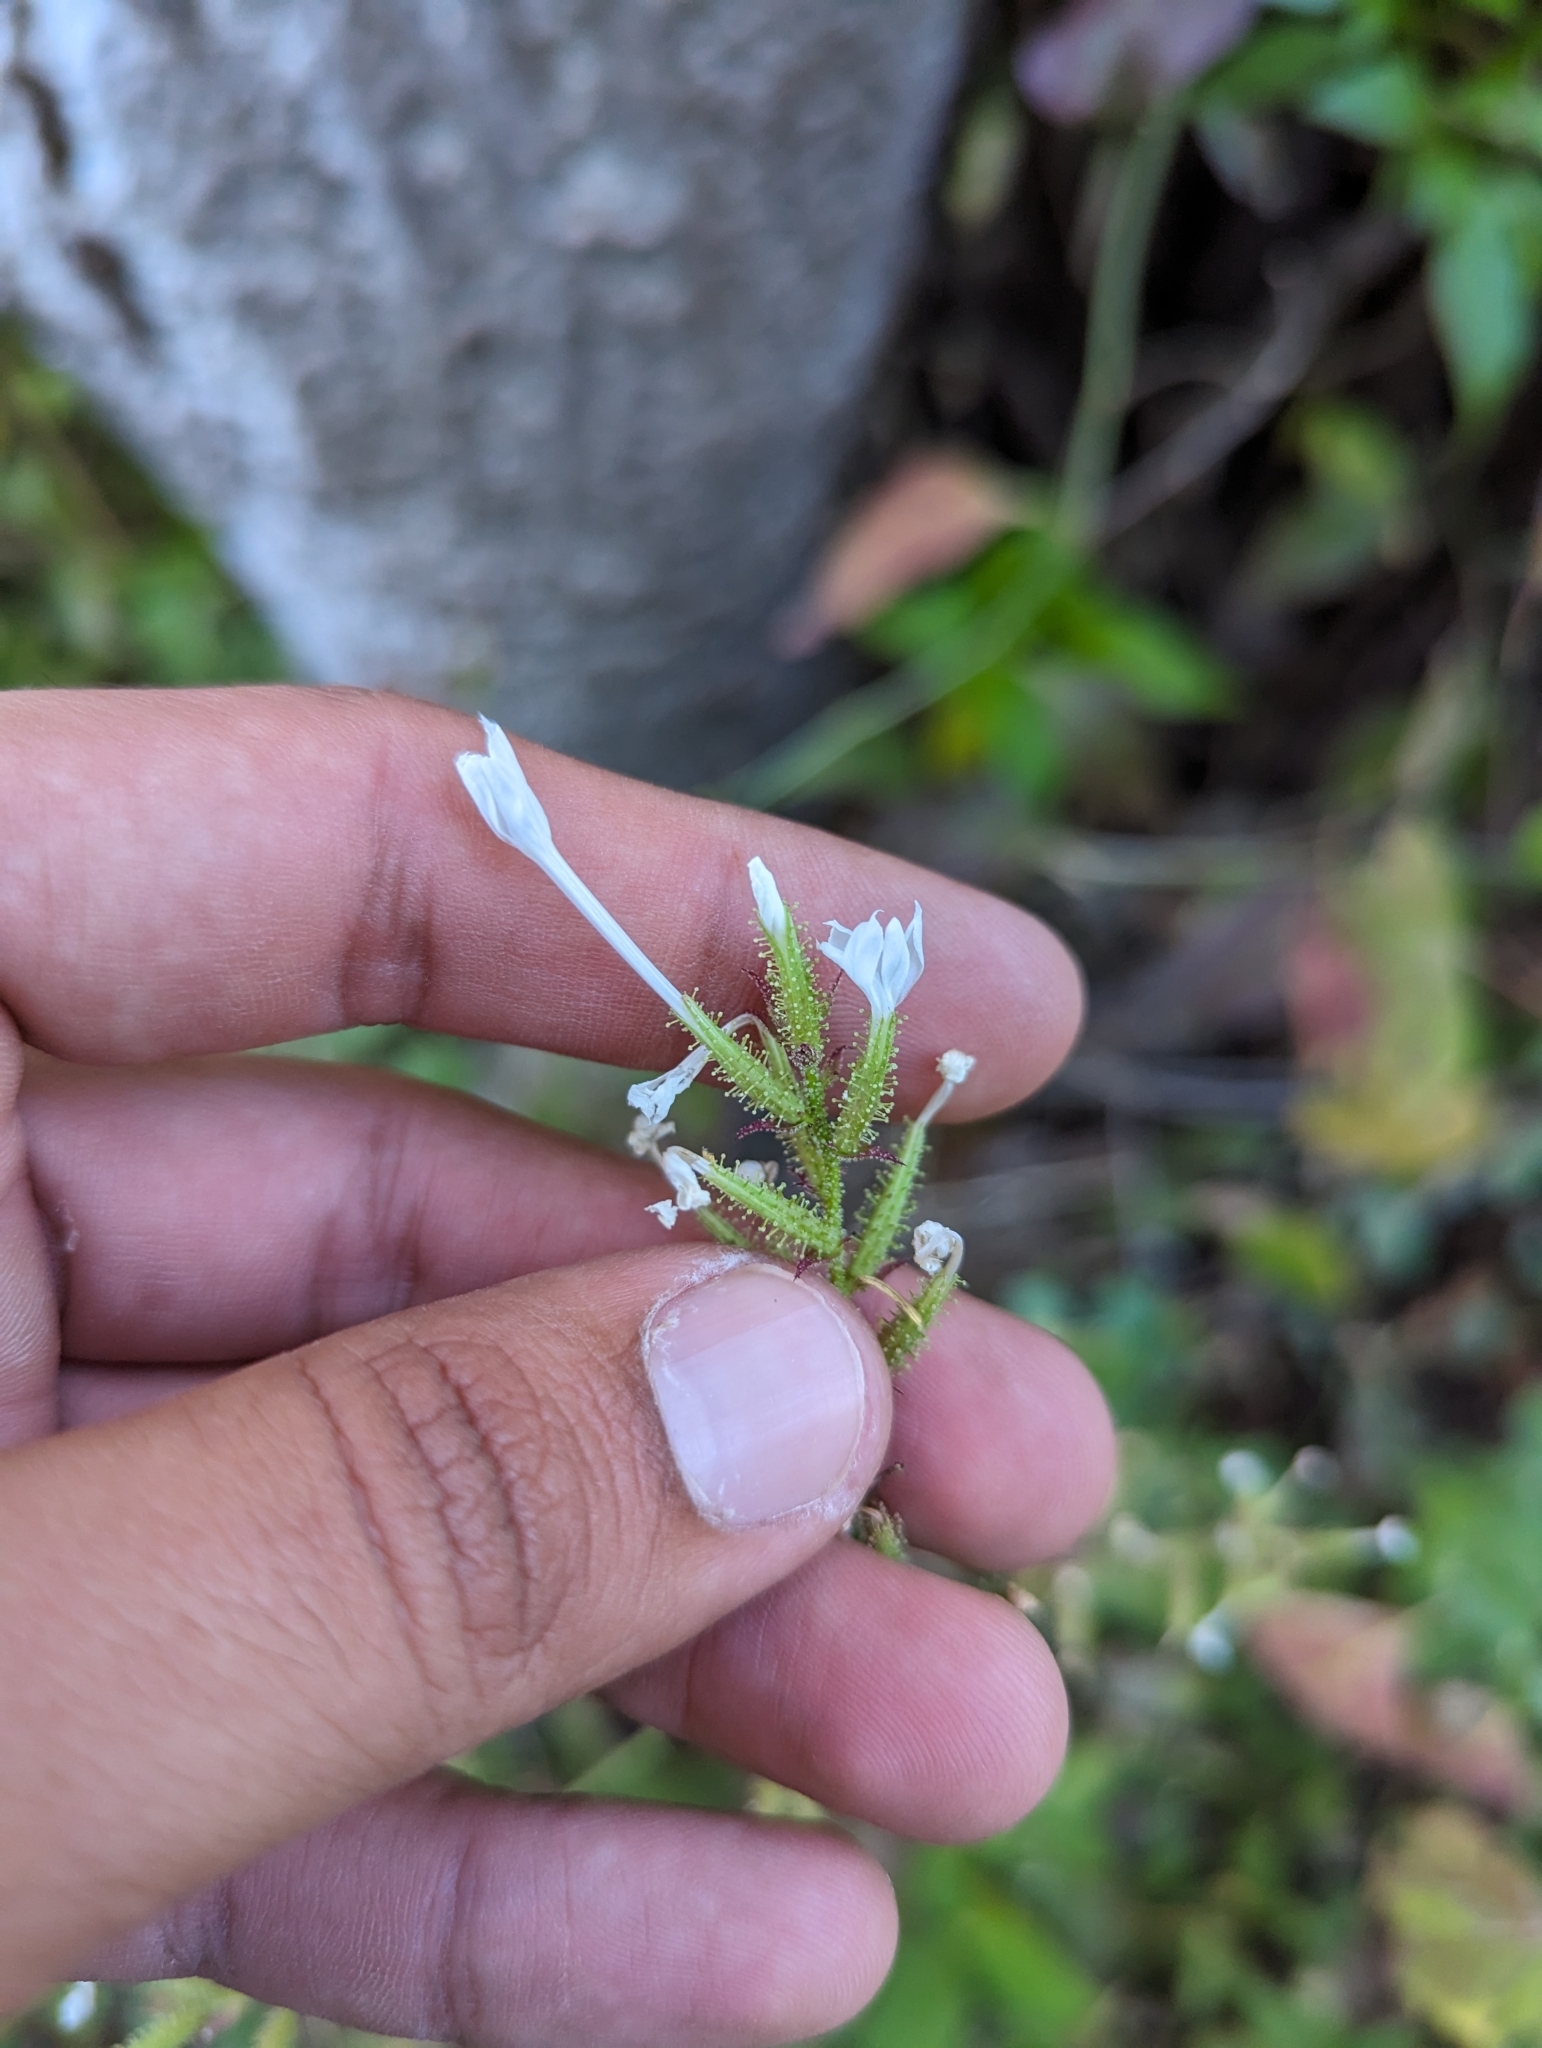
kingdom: Plantae
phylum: Tracheophyta
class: Magnoliopsida
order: Caryophyllales
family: Plumbaginaceae
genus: Plumbago
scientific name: Plumbago zeylanica
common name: Doctorbush
